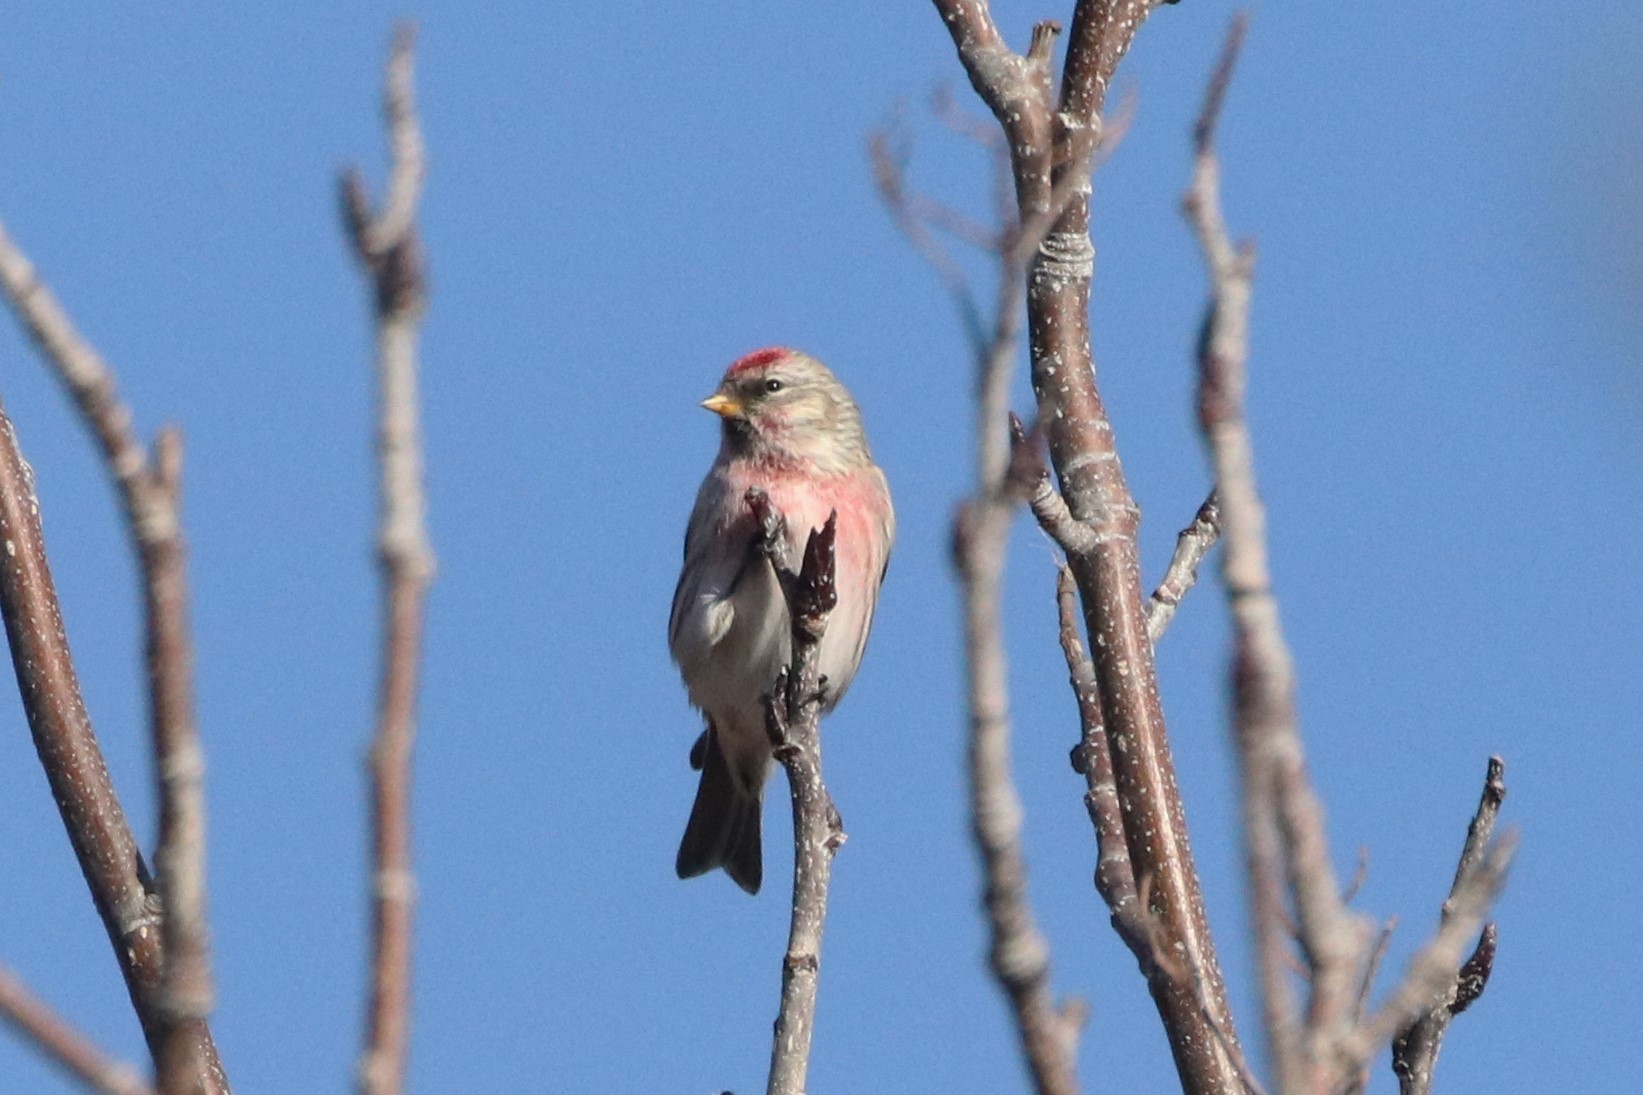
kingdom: Animalia
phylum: Chordata
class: Aves
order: Passeriformes
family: Fringillidae
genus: Acanthis
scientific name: Acanthis flammea
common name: Common redpoll
